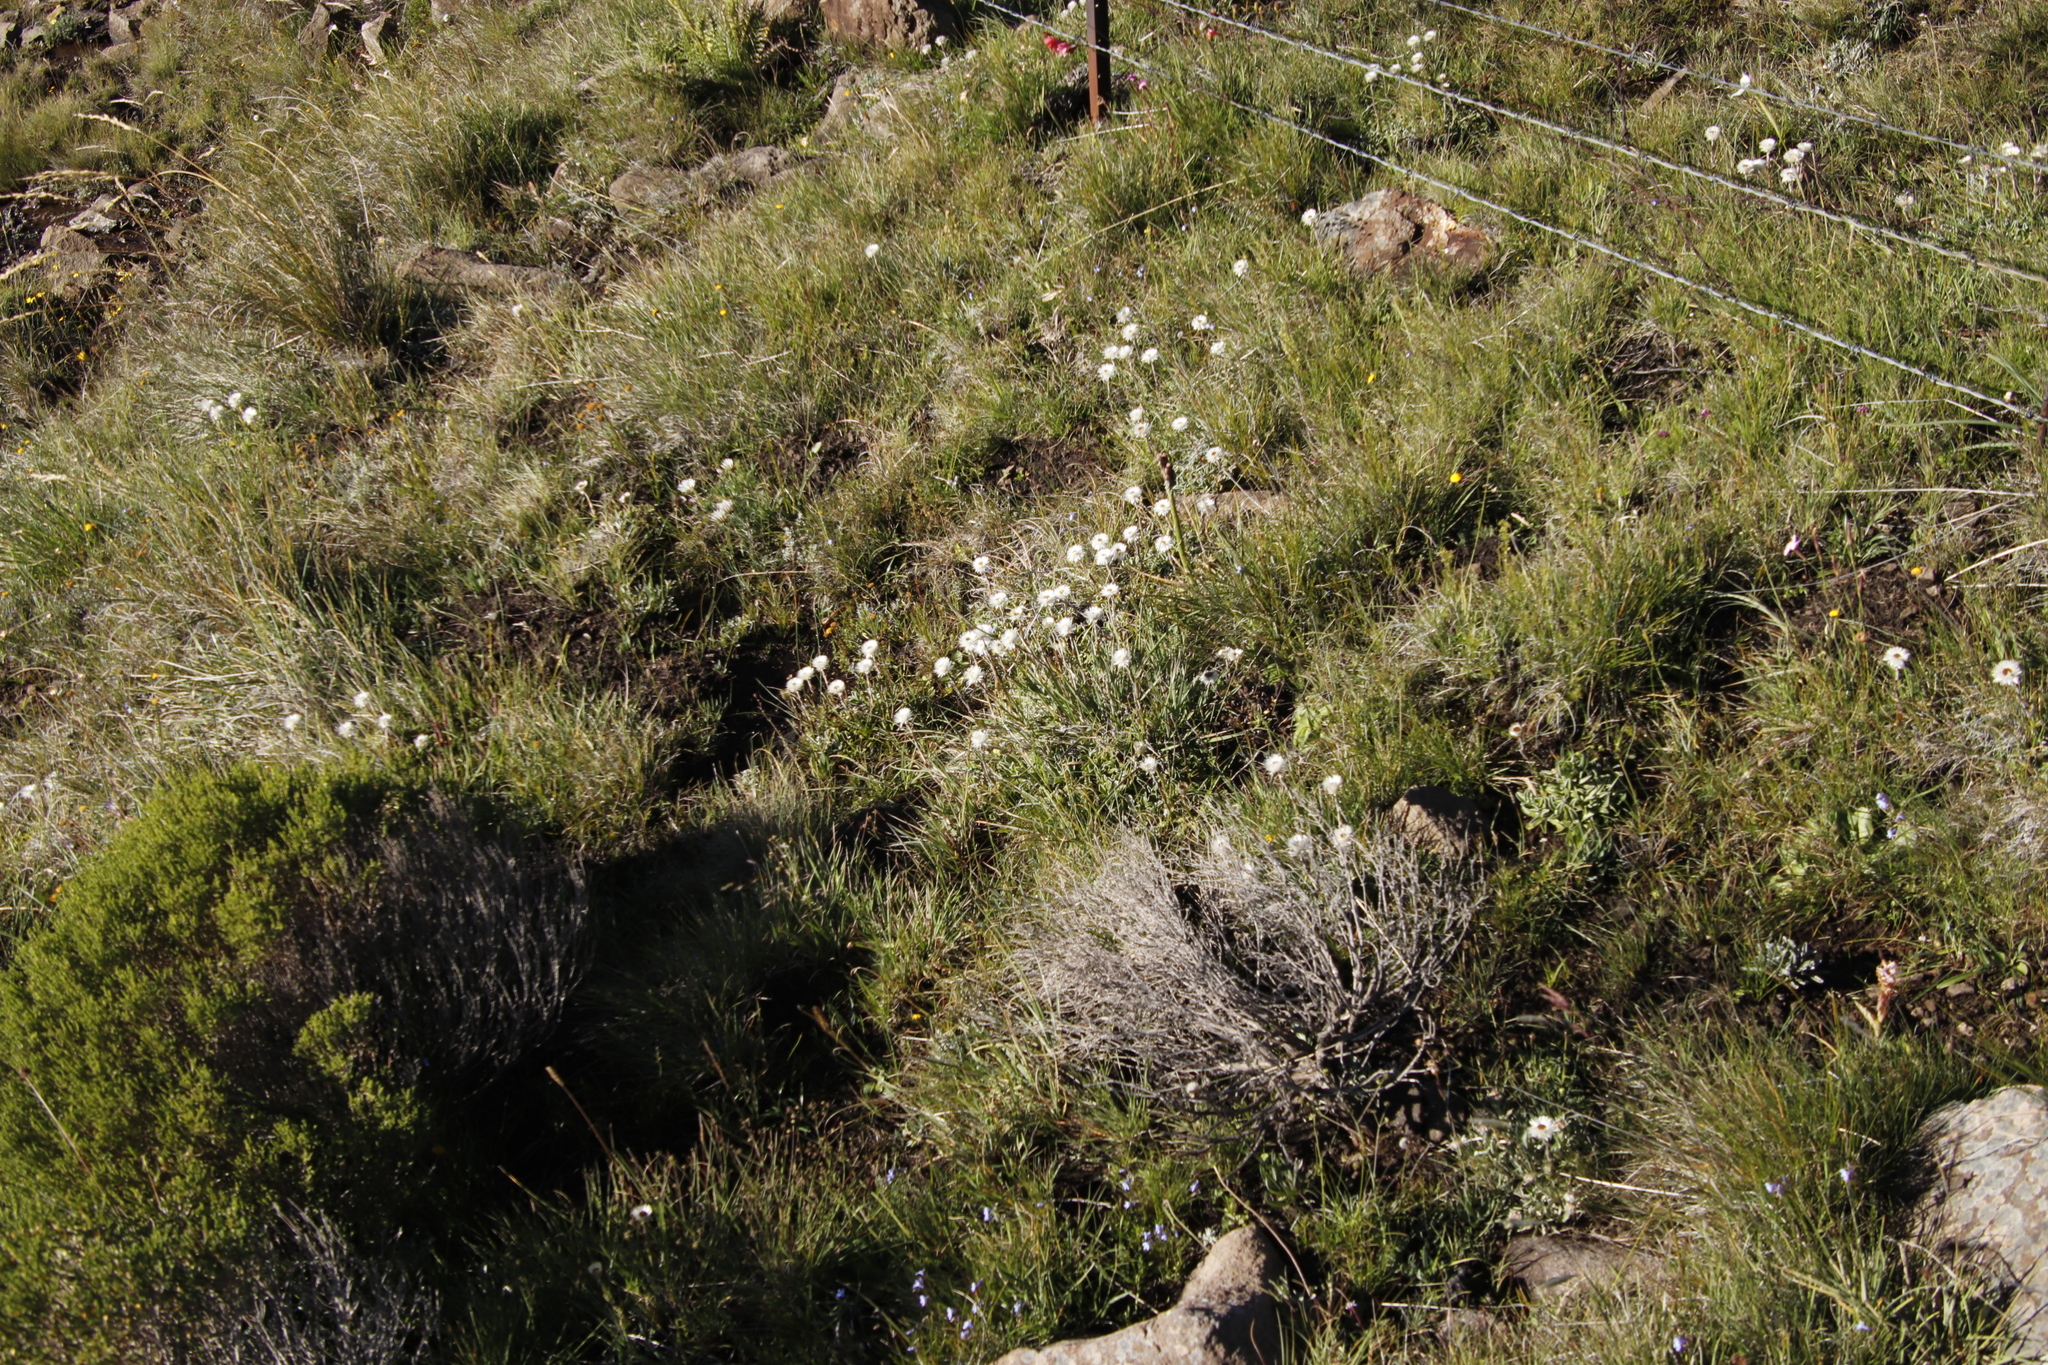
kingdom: Plantae
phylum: Tracheophyta
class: Magnoliopsida
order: Asterales
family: Asteraceae
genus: Helichrysum
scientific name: Helichrysum marginatum
